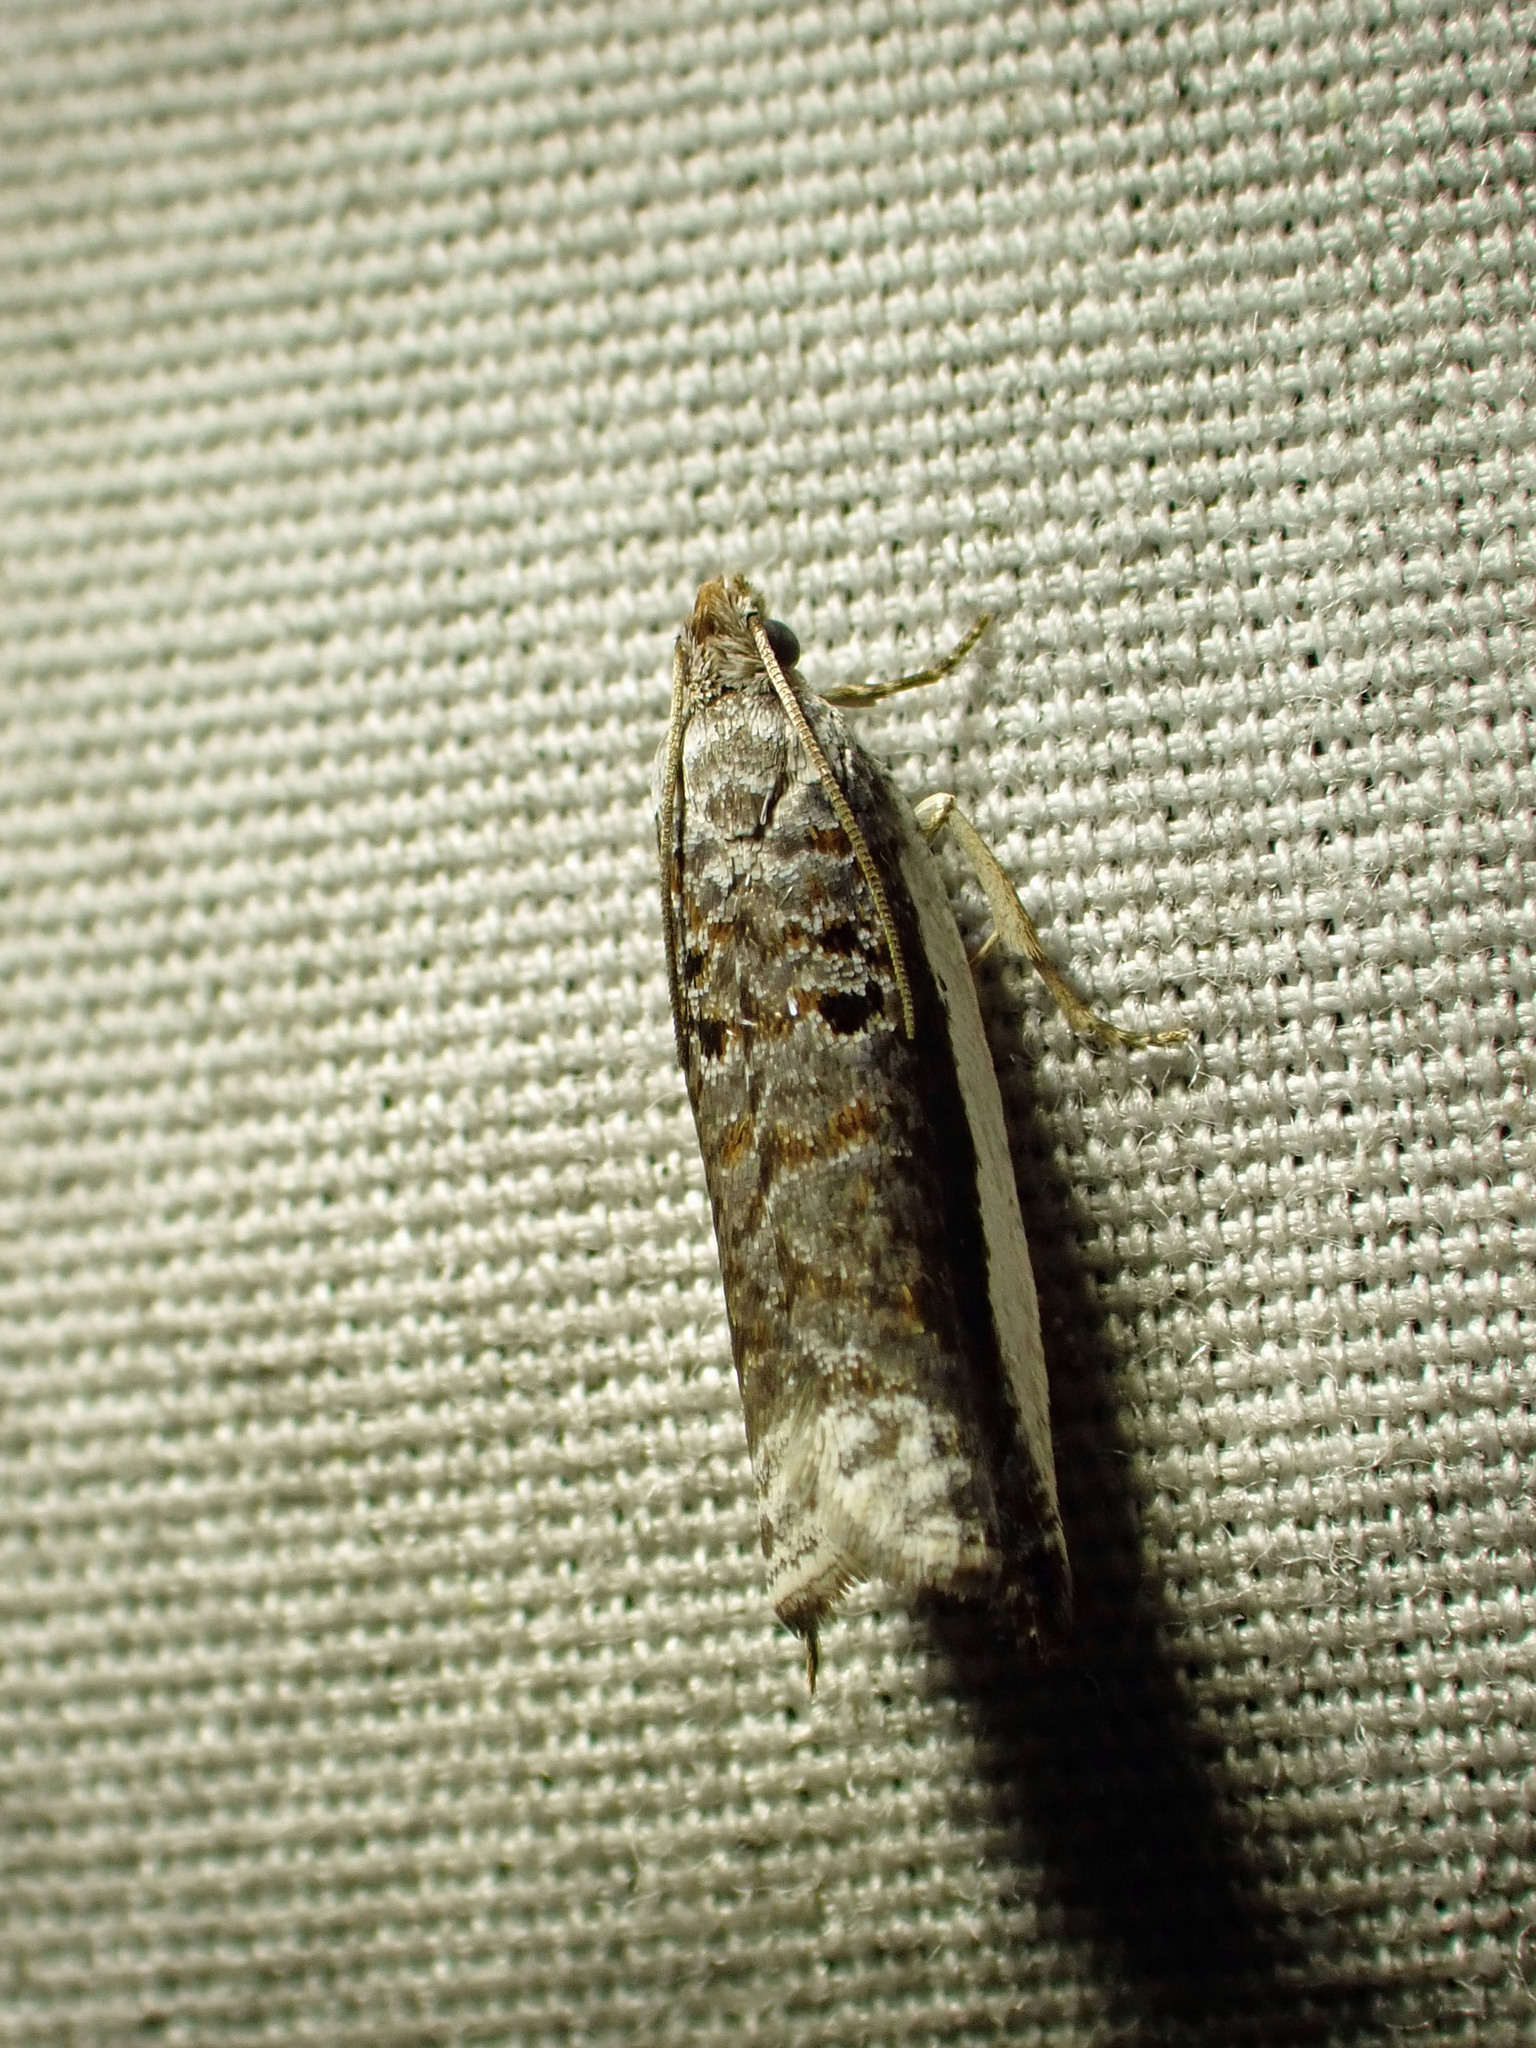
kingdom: Animalia
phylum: Arthropoda
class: Insecta
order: Lepidoptera
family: Tortricidae
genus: Ancylis
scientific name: Ancylis albacostana
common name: White-edged ancylis moth
